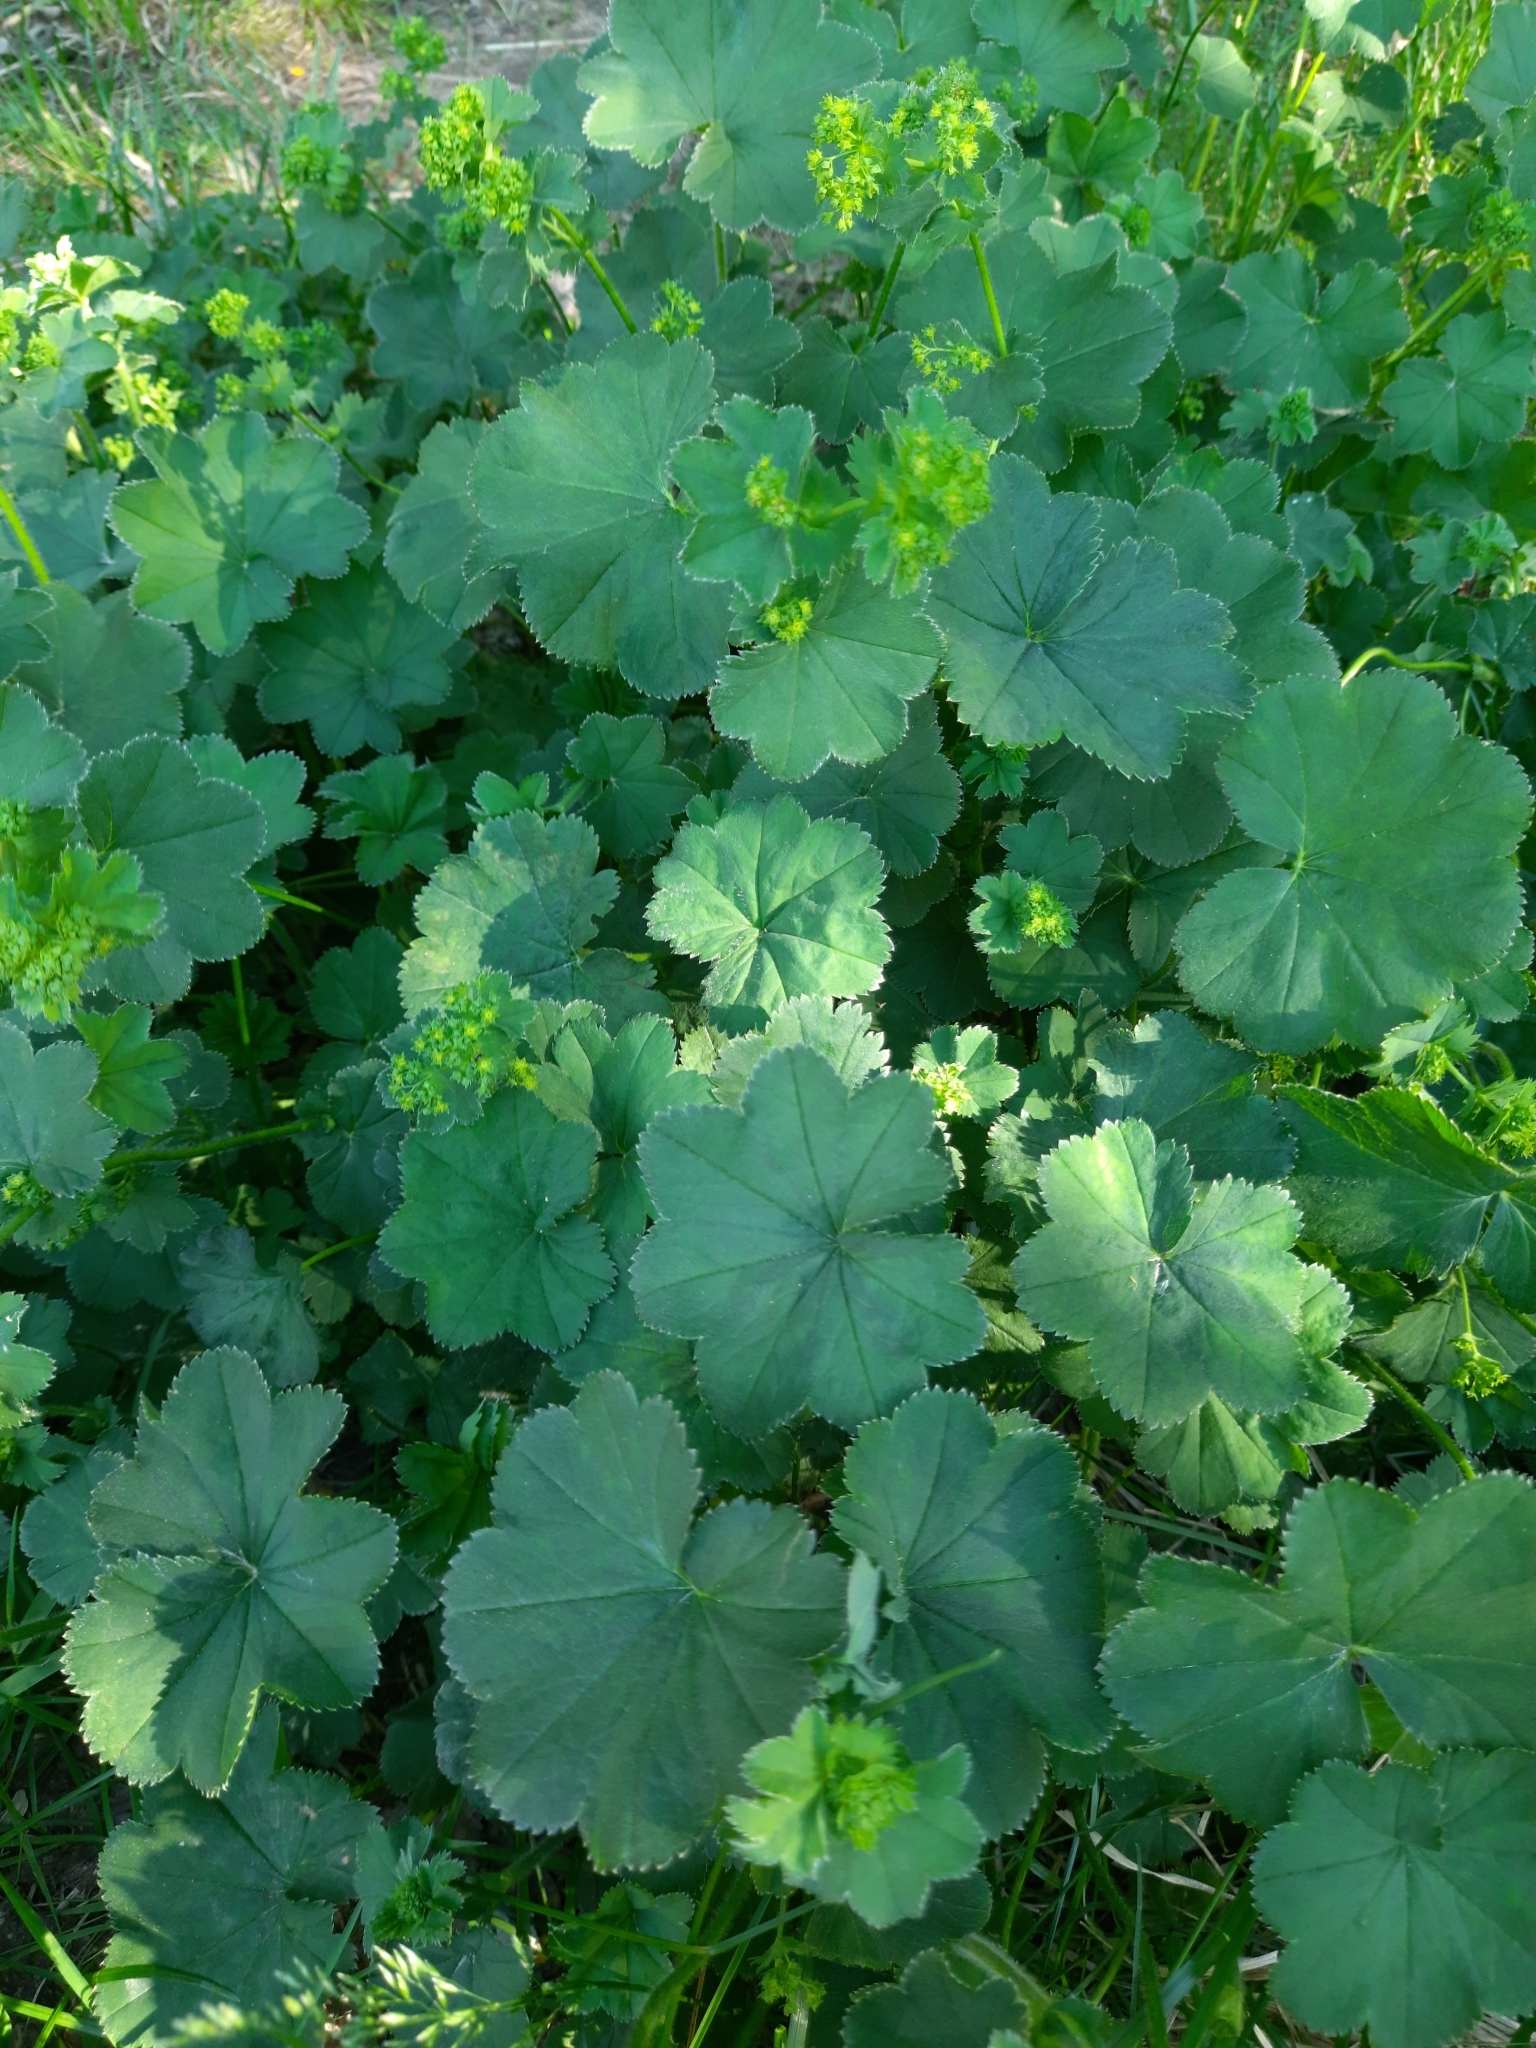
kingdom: Plantae
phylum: Tracheophyta
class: Magnoliopsida
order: Rosales
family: Rosaceae
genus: Alchemilla
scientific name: Alchemilla lindbergiana
